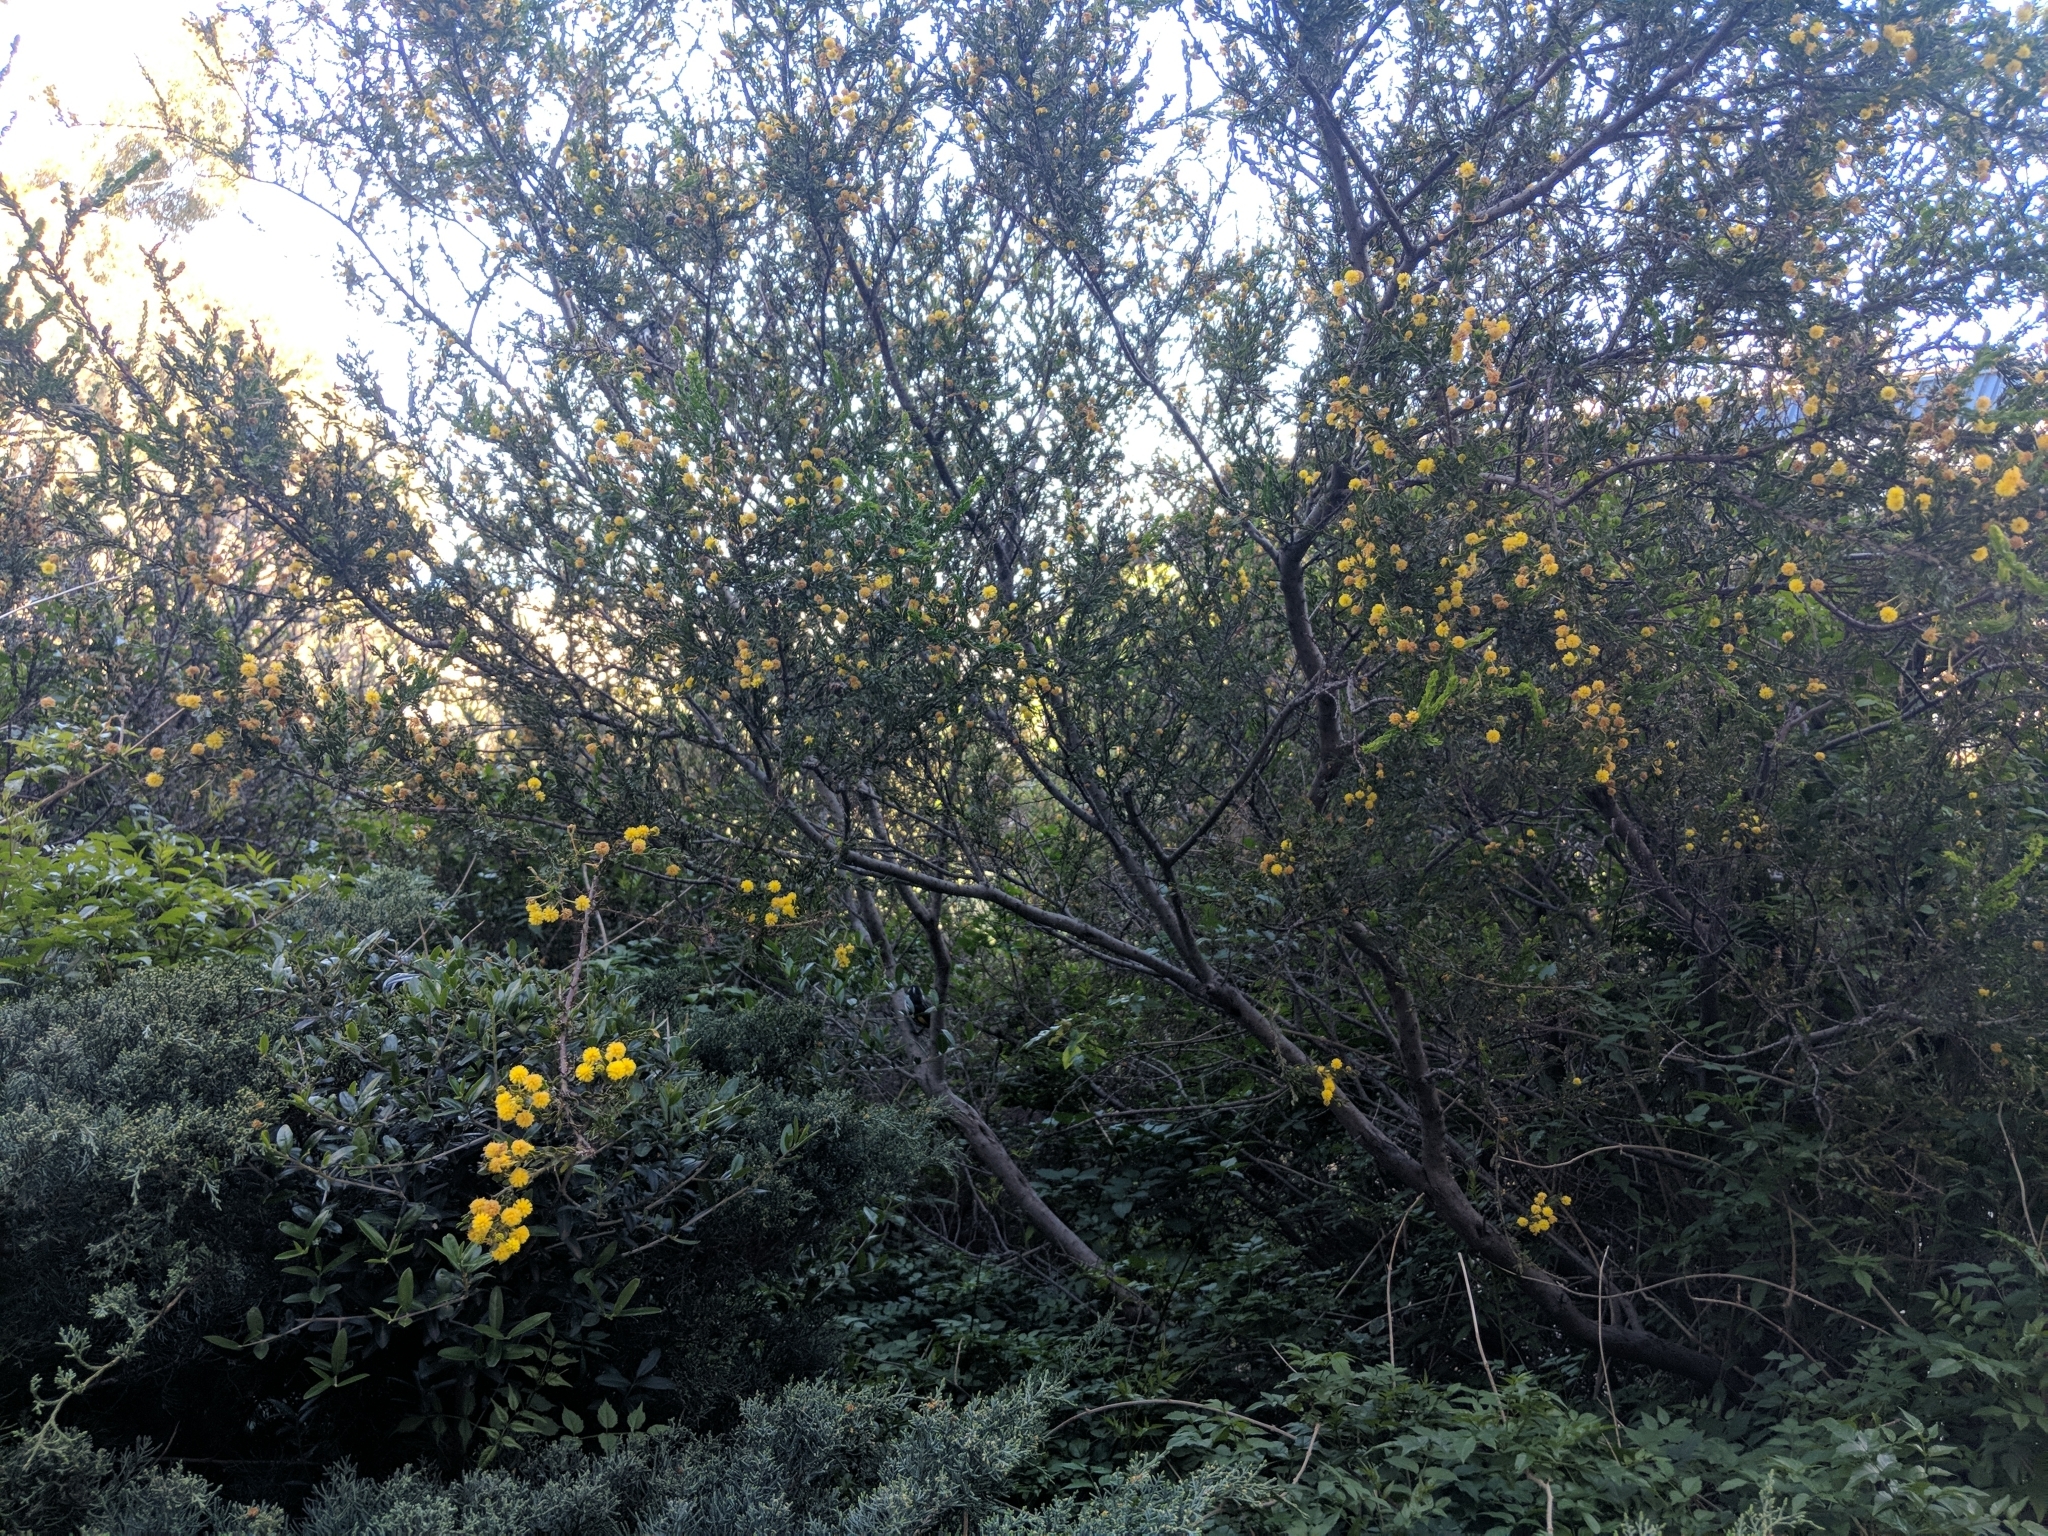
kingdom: Plantae
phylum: Tracheophyta
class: Magnoliopsida
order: Fabales
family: Fabaceae
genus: Acacia
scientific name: Acacia paradoxa
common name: Paradox acacia
